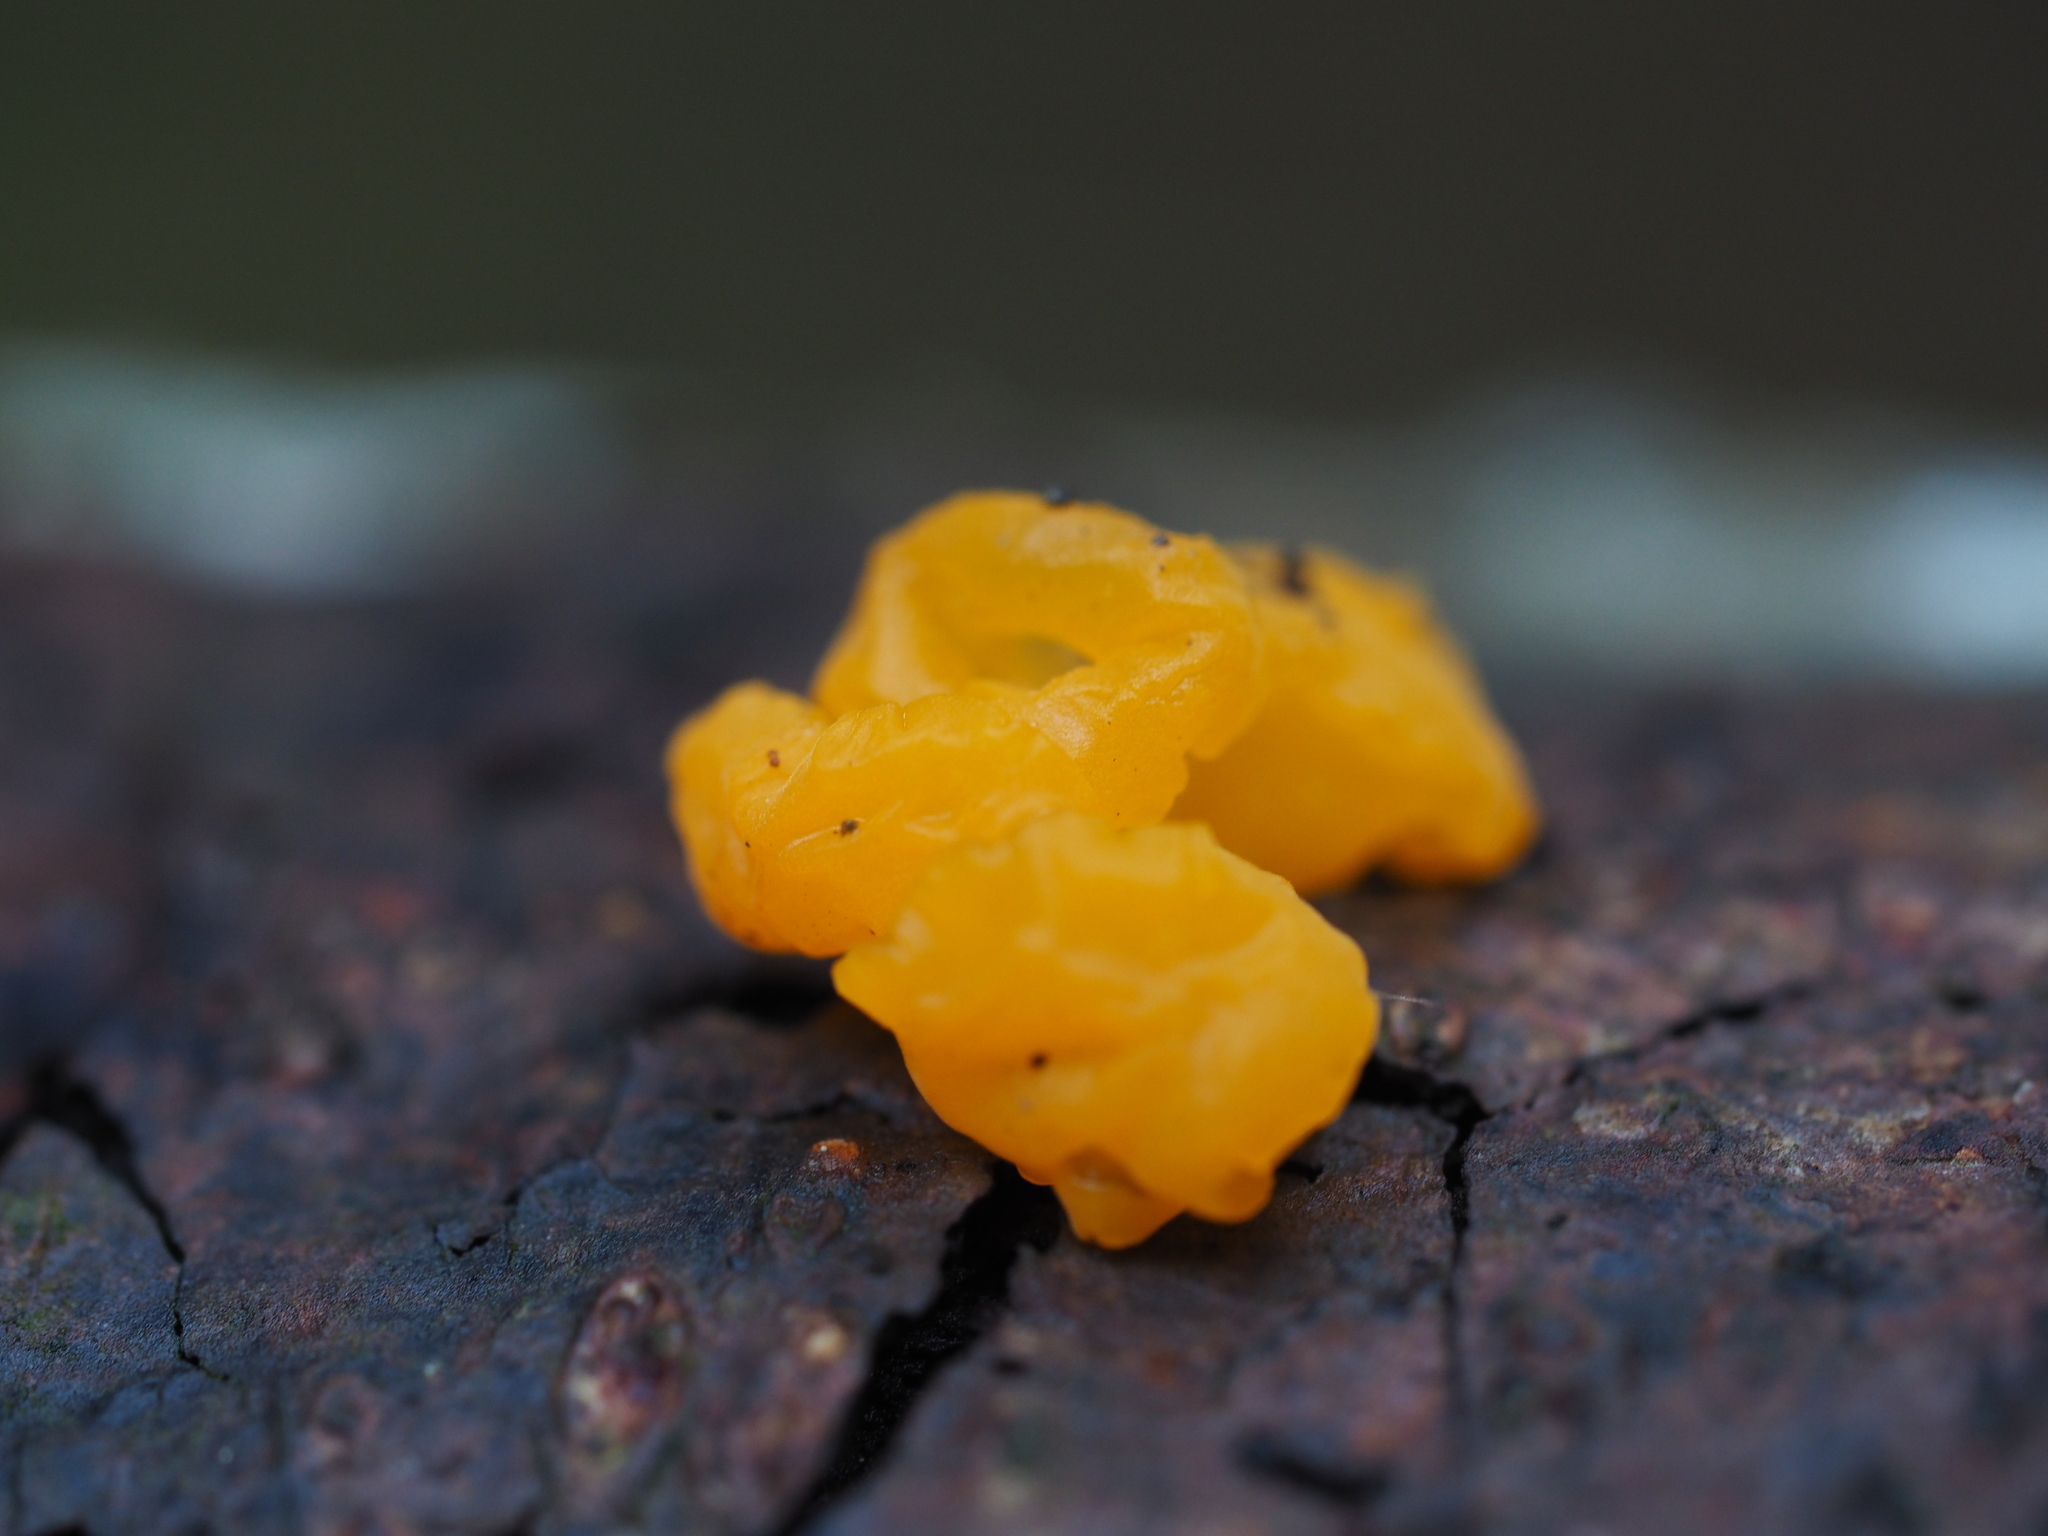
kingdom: Fungi
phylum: Basidiomycota
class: Dacrymycetes
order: Dacrymycetales
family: Dacrymycetaceae
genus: Dacrymyces
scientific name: Dacrymyces chrysospermus
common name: Orange jelly spot
